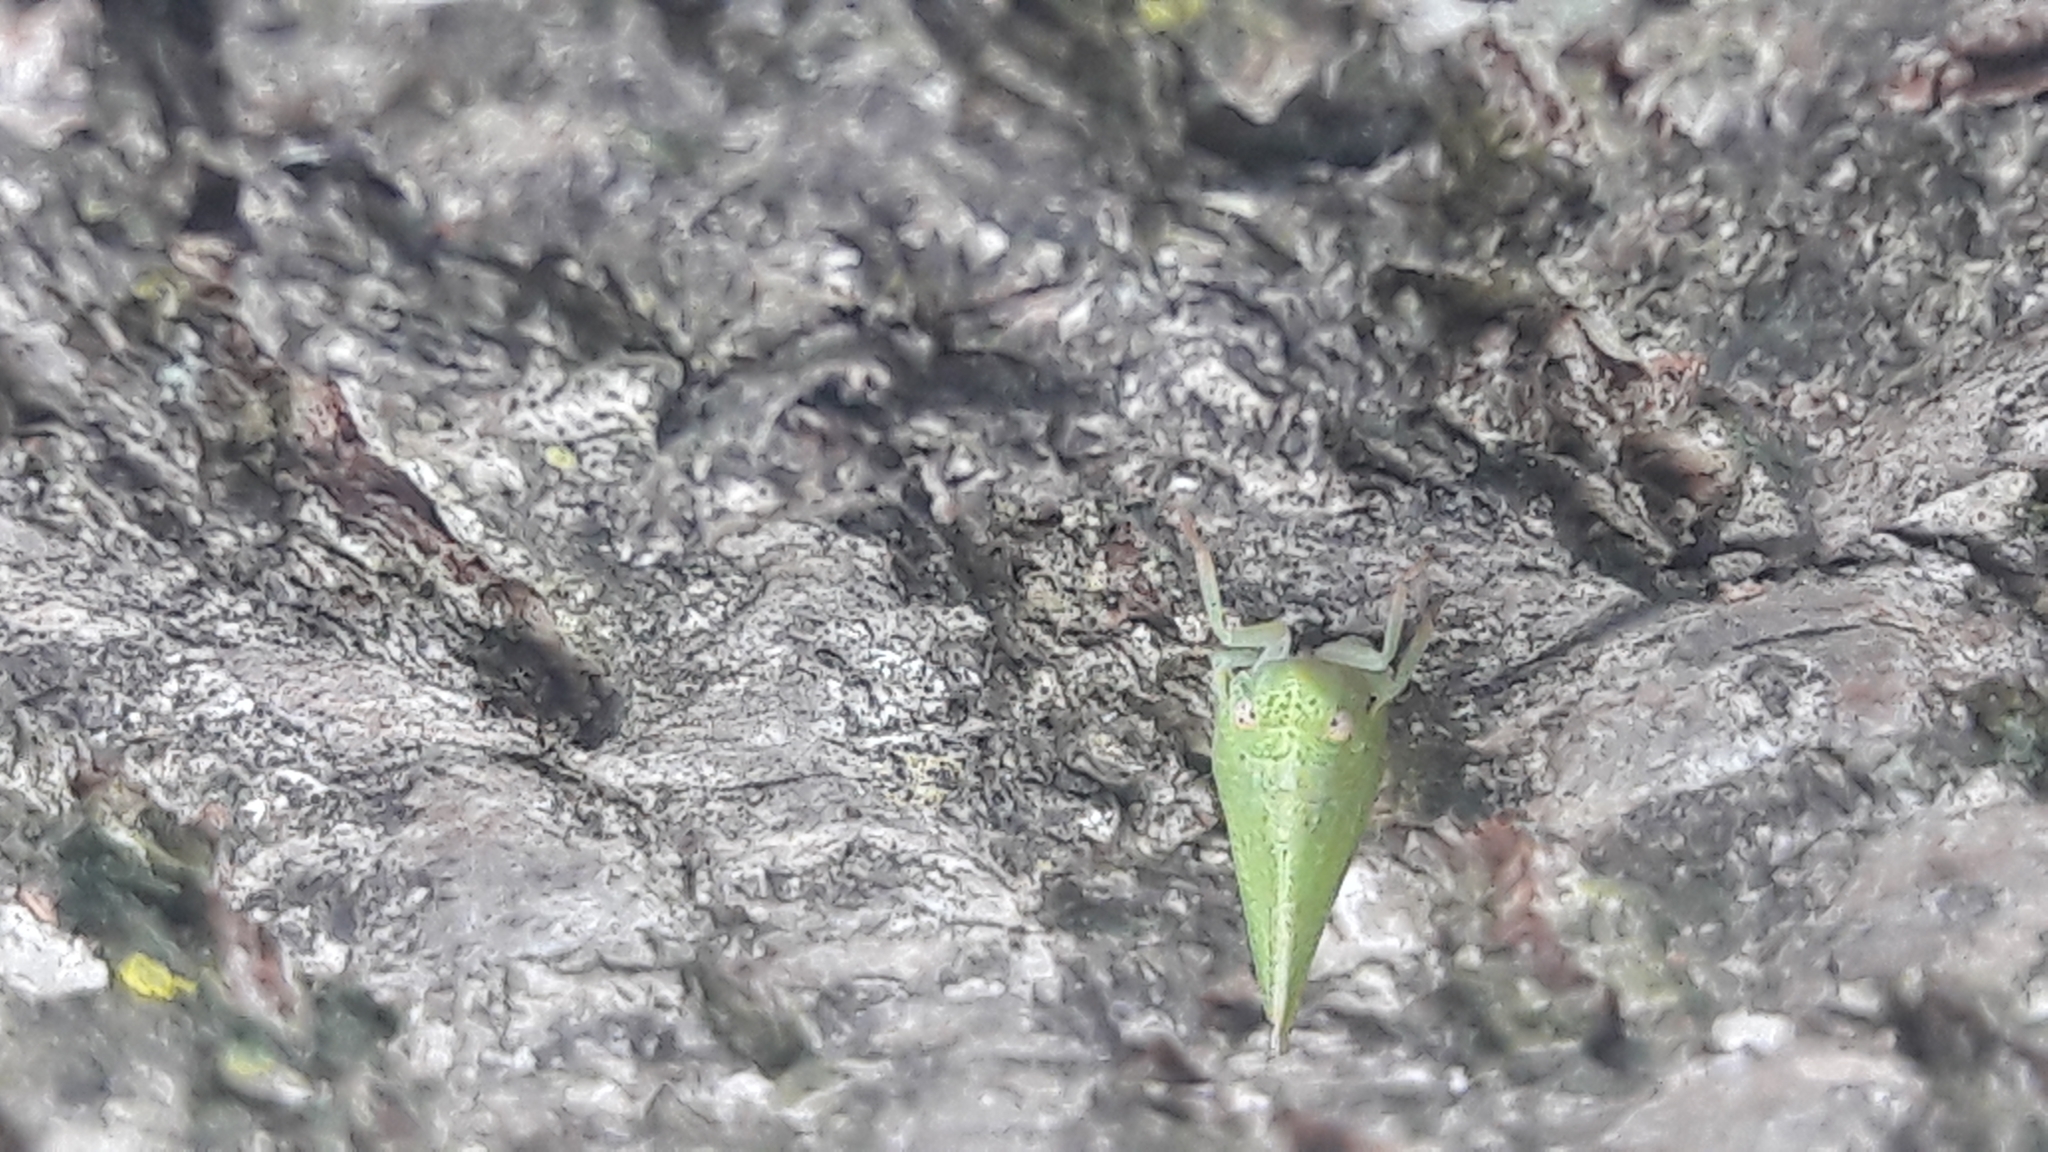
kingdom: Animalia
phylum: Arthropoda
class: Insecta
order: Hemiptera
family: Acanaloniidae
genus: Acanalonia
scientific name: Acanalonia conica
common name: Green cone-headed planthopper
